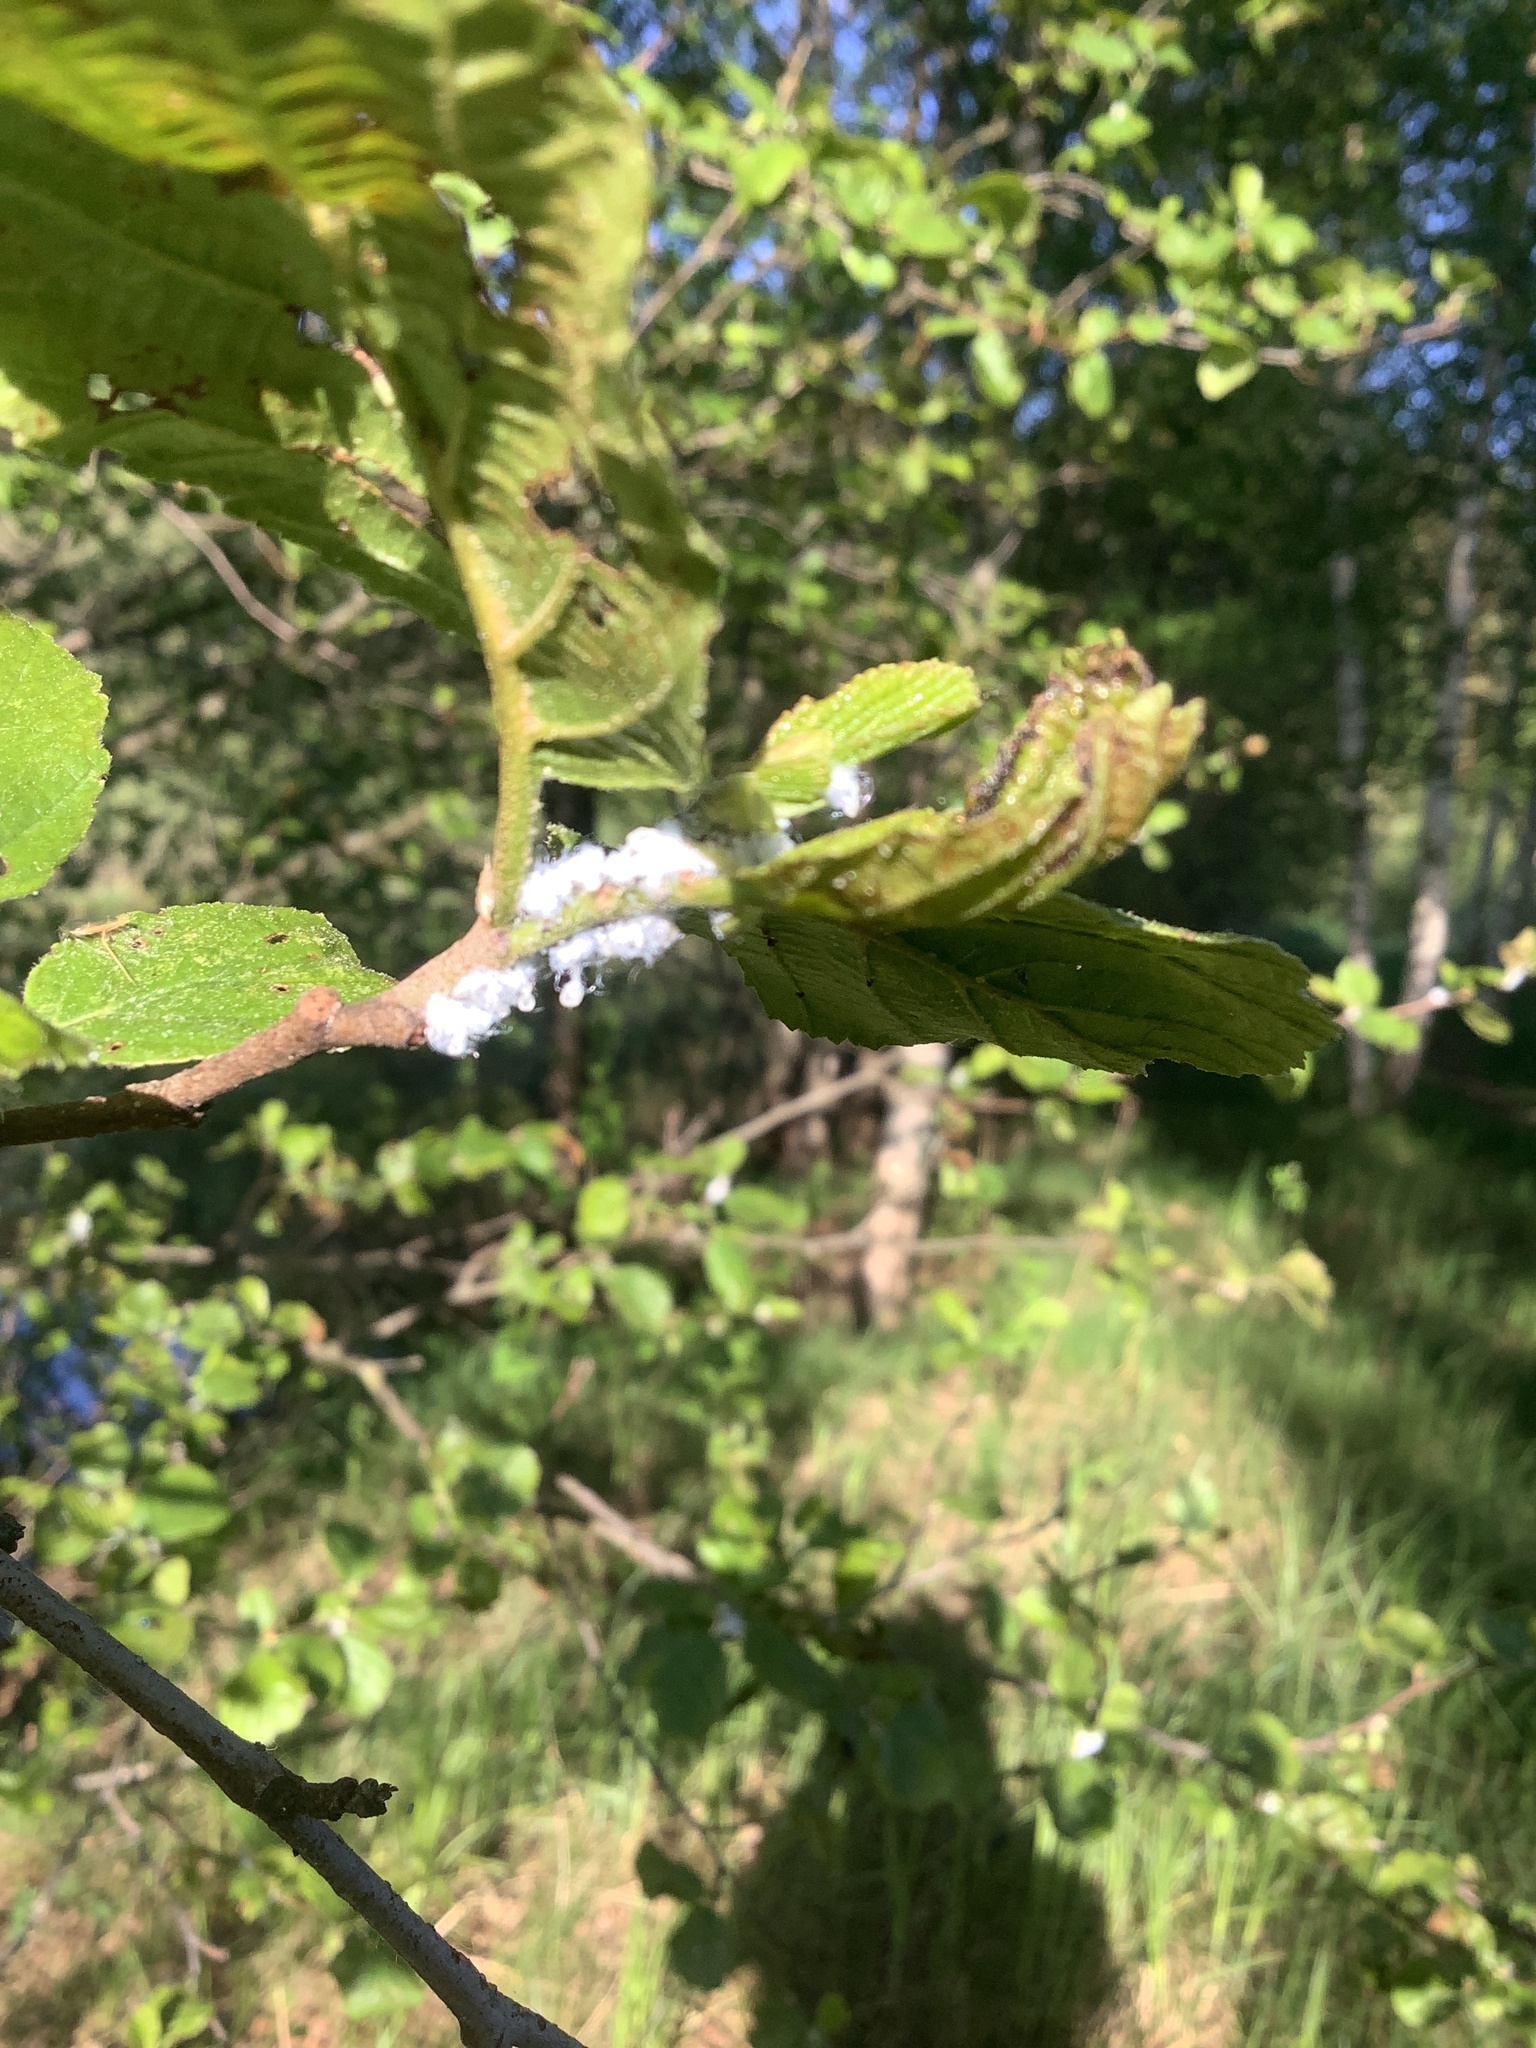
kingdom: Animalia
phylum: Arthropoda
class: Insecta
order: Hemiptera
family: Psyllidae
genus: Psylla
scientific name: Psylla alni
